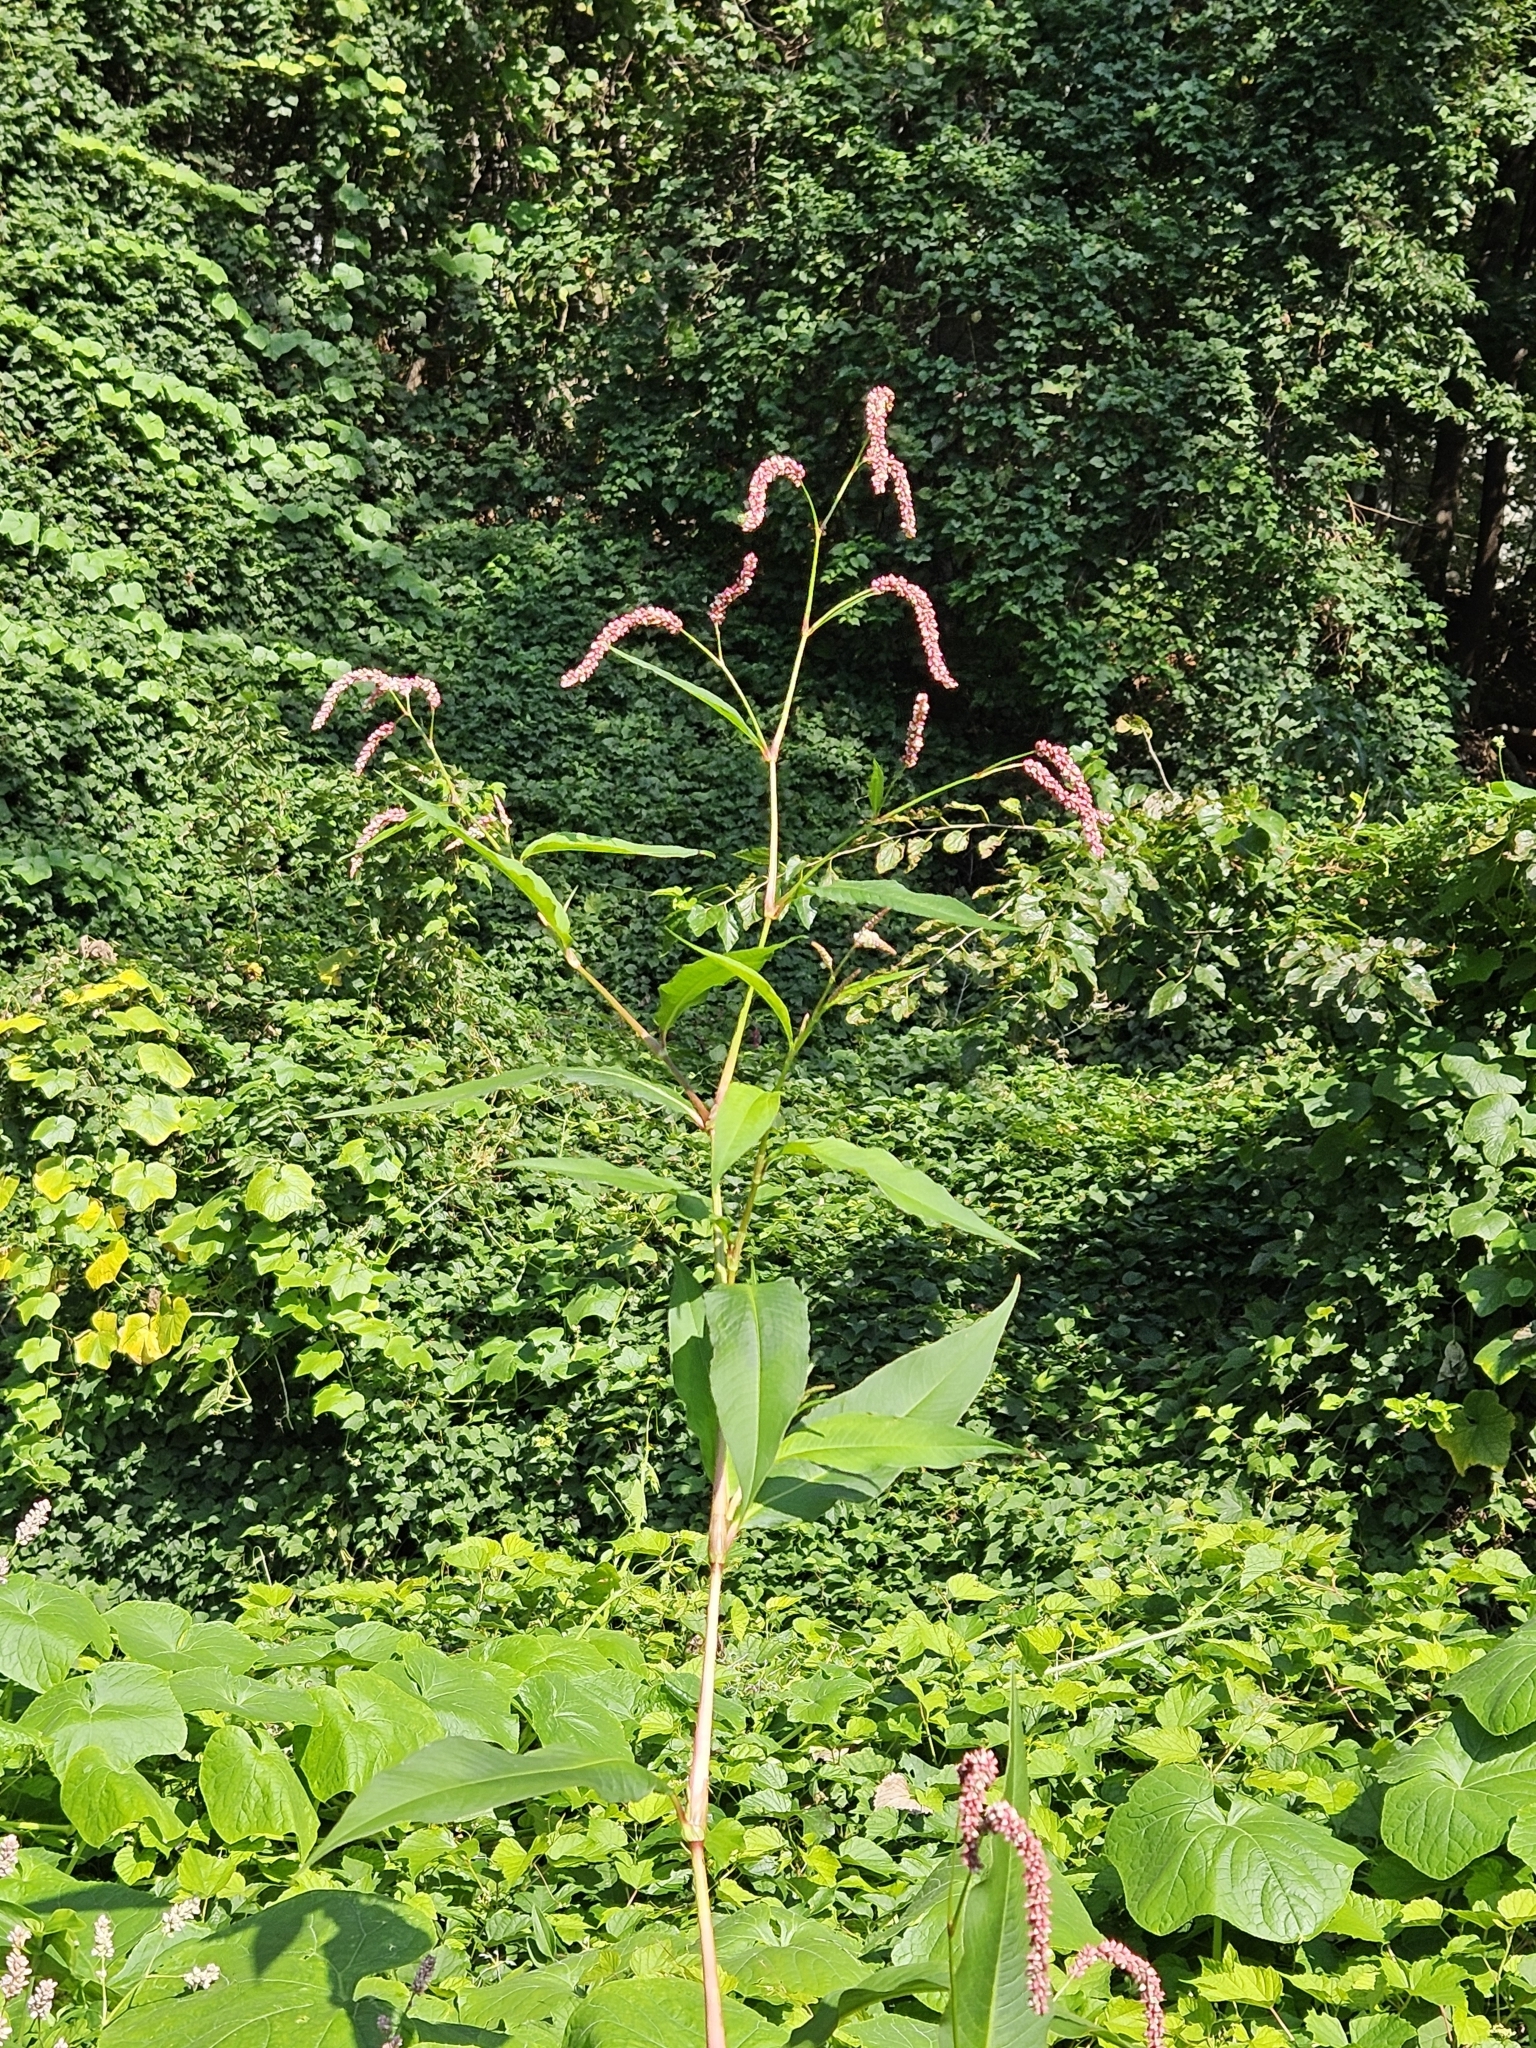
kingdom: Plantae
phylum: Tracheophyta
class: Magnoliopsida
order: Caryophyllales
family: Polygonaceae
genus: Persicaria
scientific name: Persicaria extremiorientalis
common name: Far-eastern smartweed
